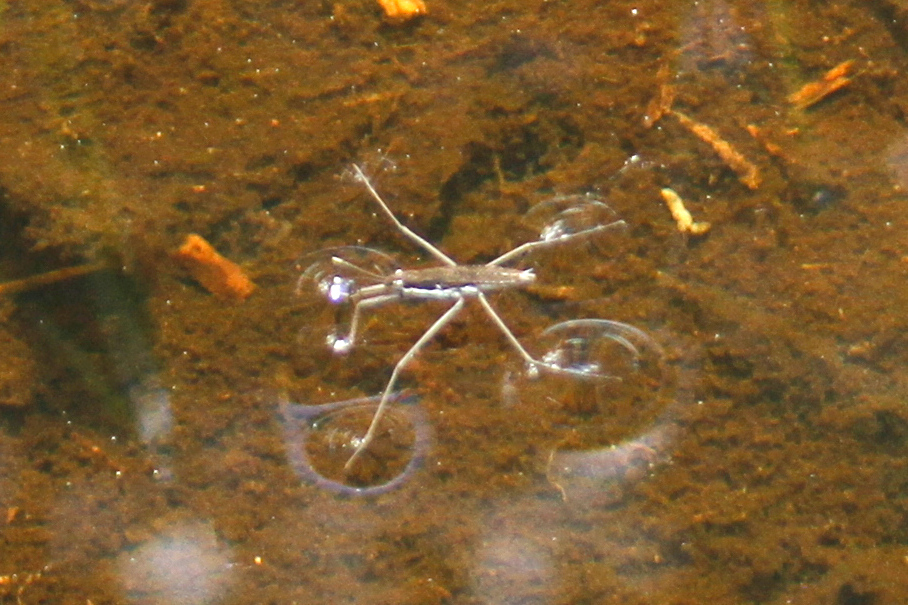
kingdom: Animalia
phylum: Arthropoda
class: Insecta
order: Hemiptera
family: Gerridae
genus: Aquarius
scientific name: Aquarius remigis
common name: Common water strider
